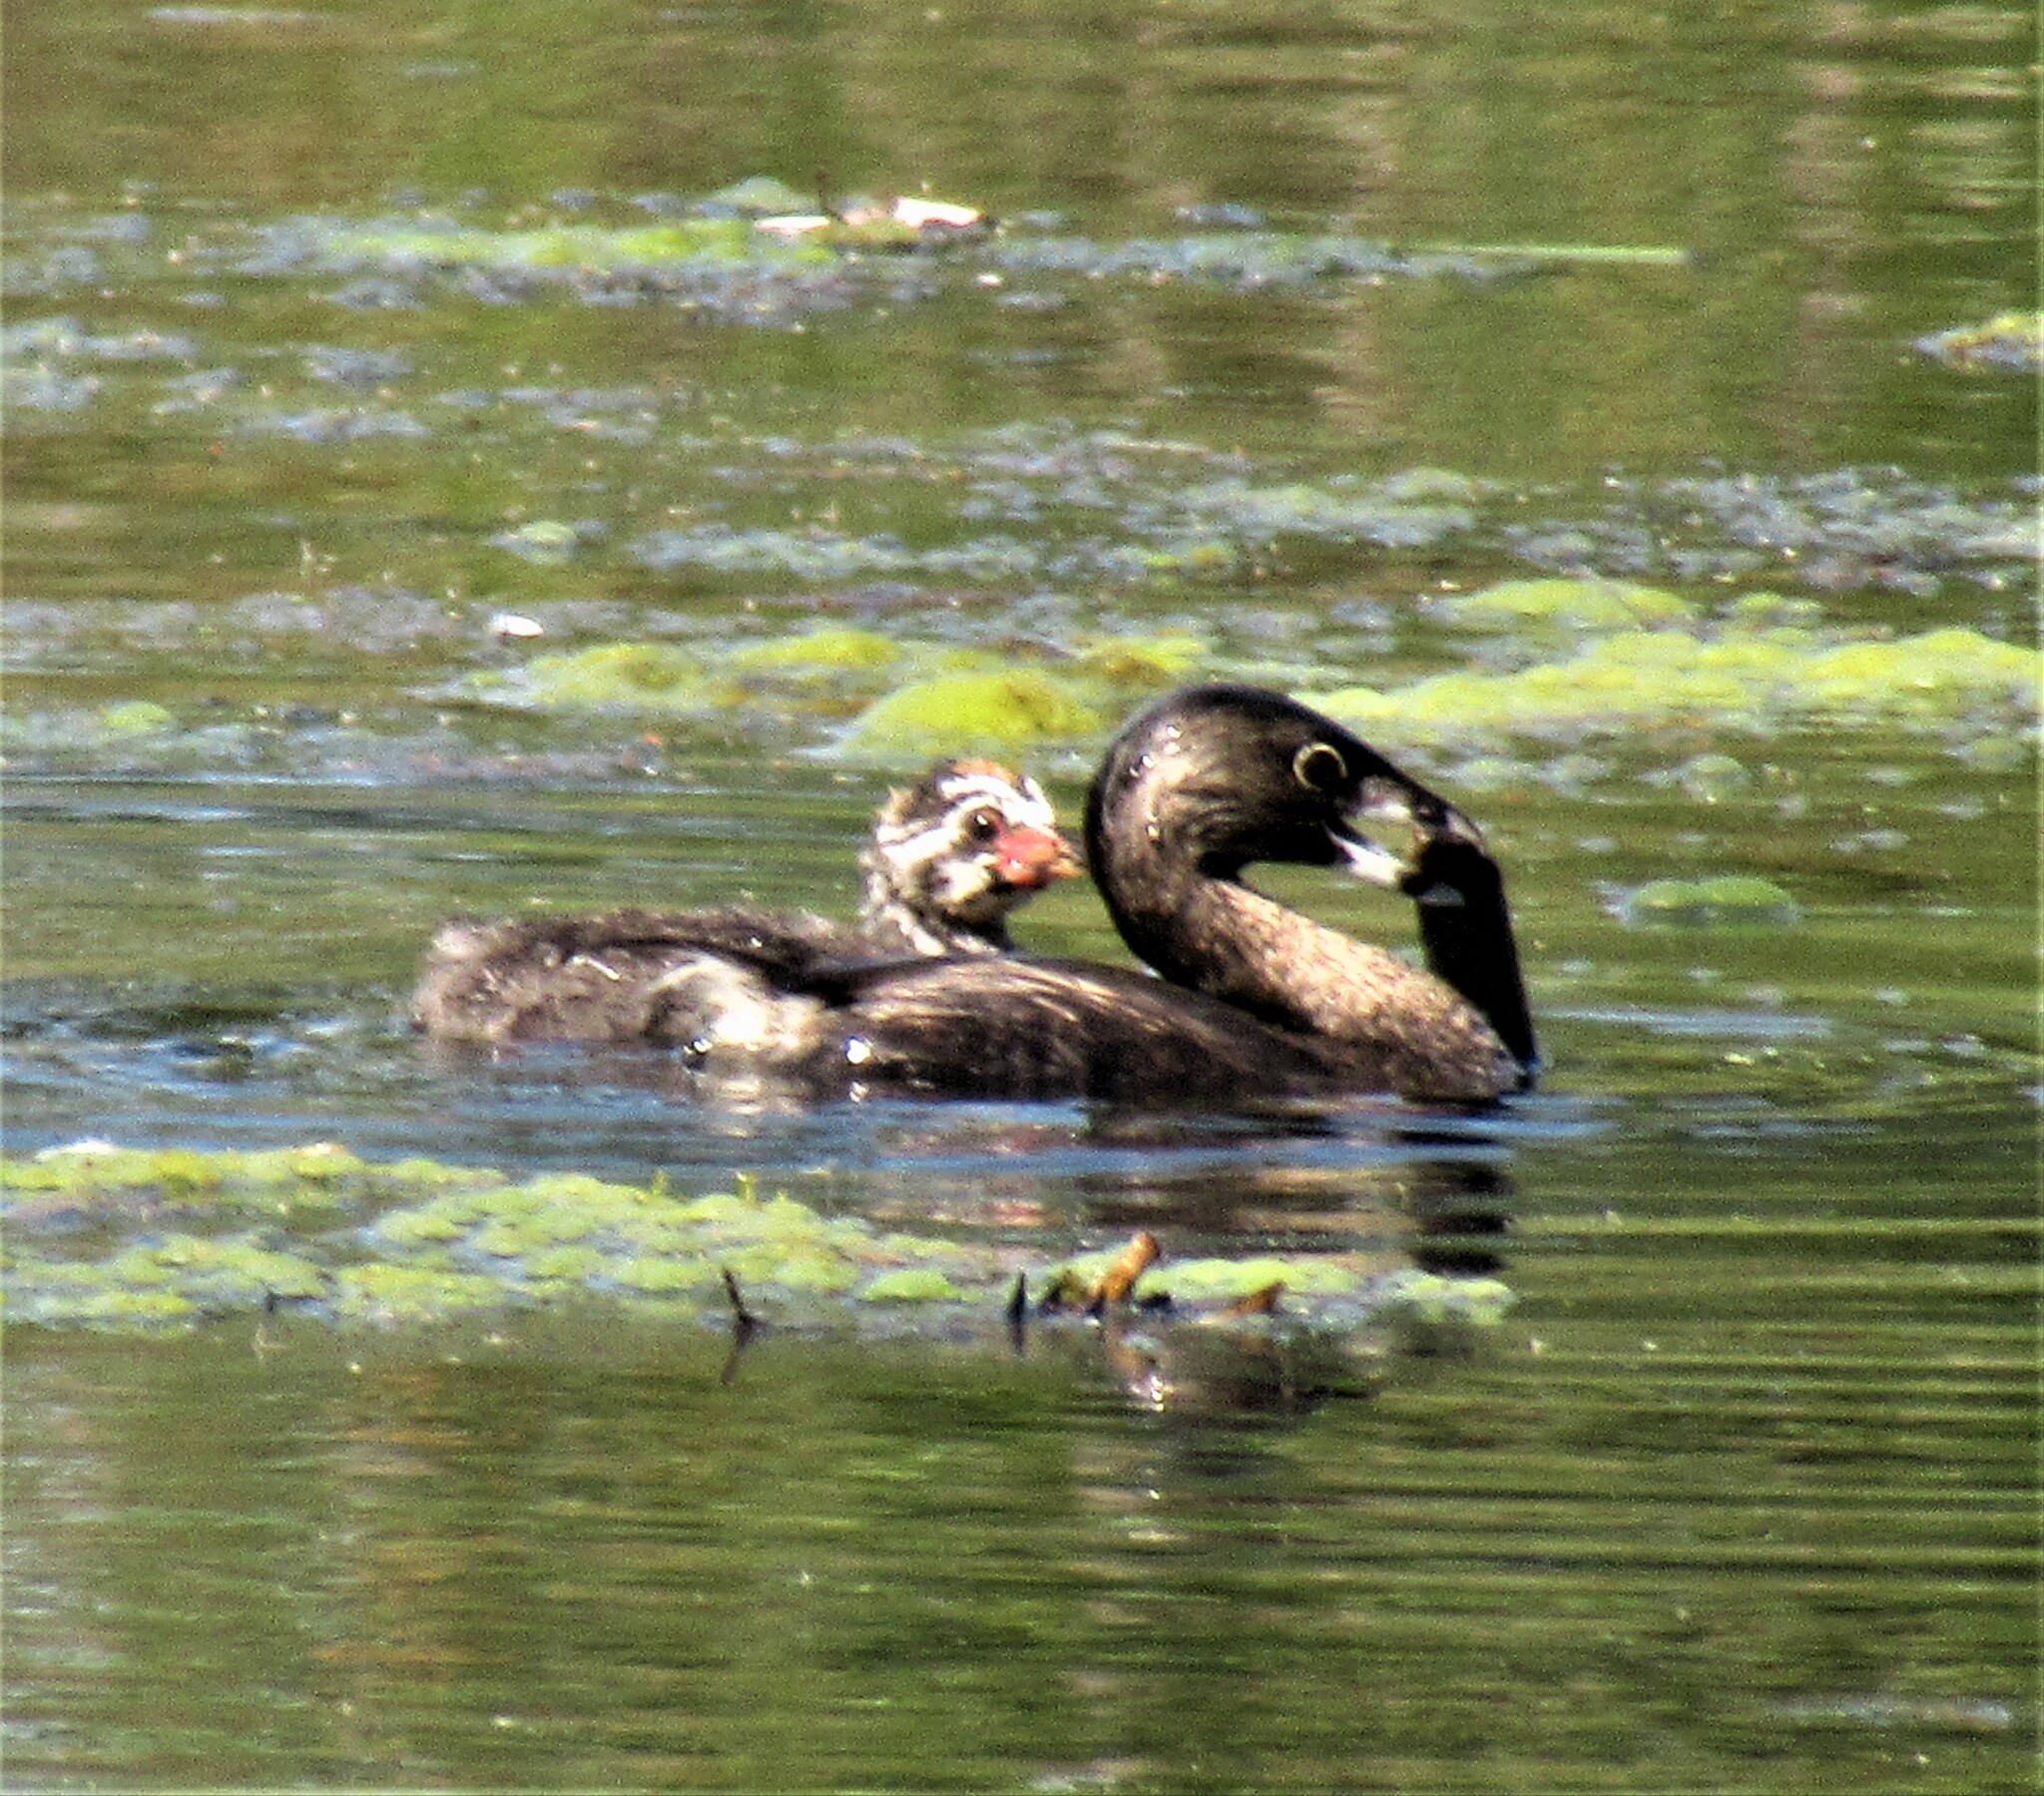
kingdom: Animalia
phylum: Chordata
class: Aves
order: Podicipediformes
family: Podicipedidae
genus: Podilymbus
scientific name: Podilymbus podiceps
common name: Pied-billed grebe
